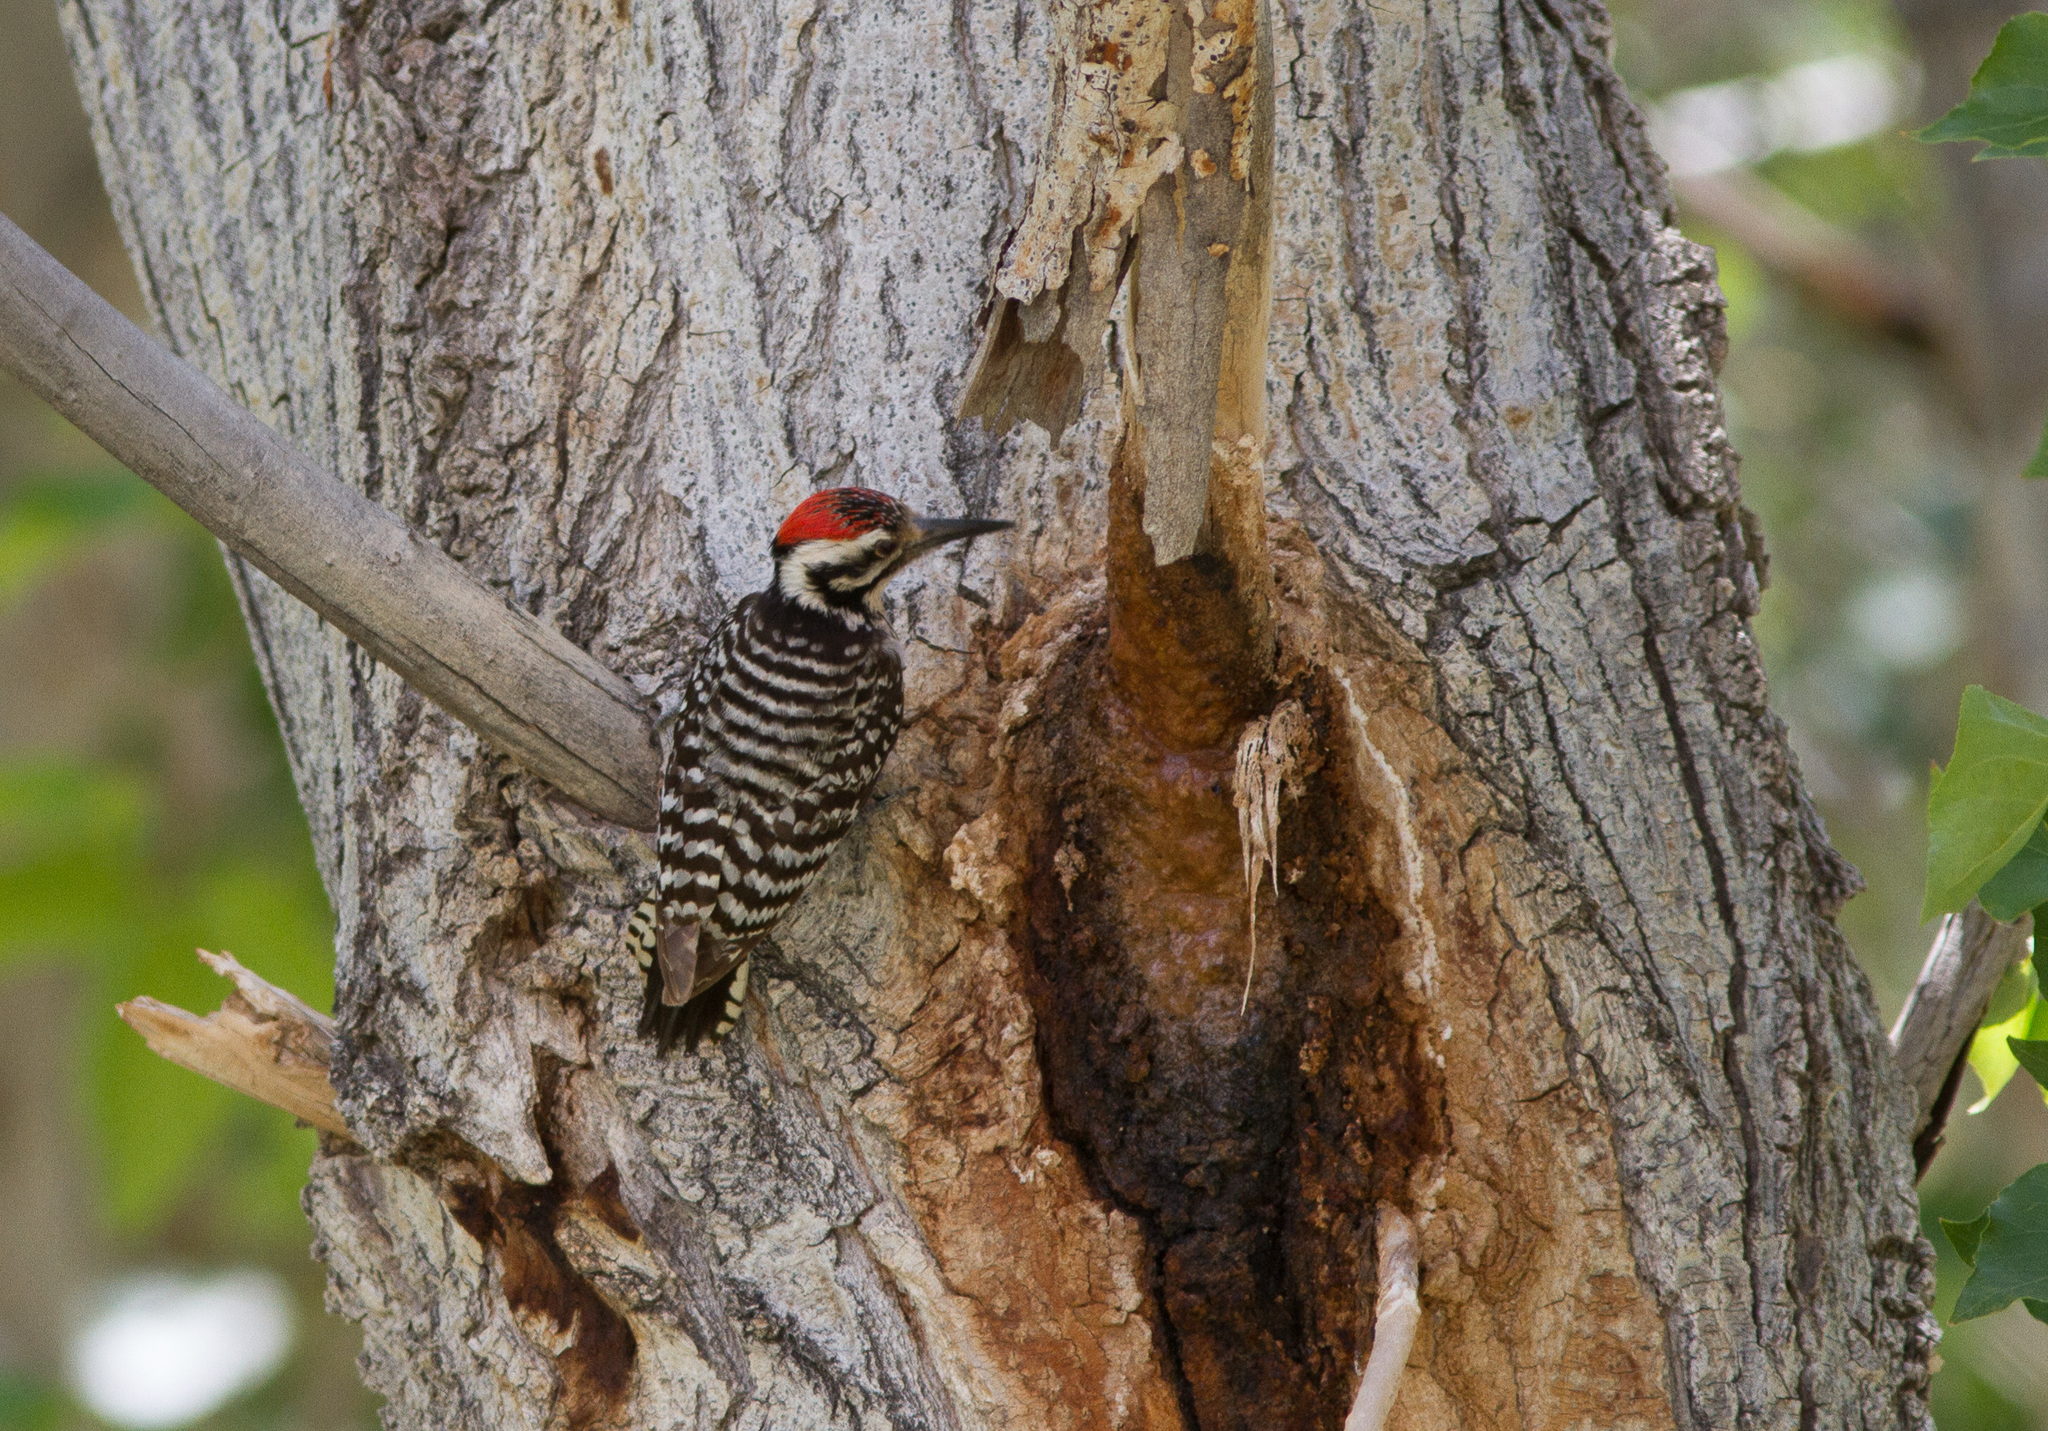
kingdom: Animalia
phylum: Chordata
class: Aves
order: Piciformes
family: Picidae
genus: Dryobates
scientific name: Dryobates scalaris
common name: Ladder-backed woodpecker
